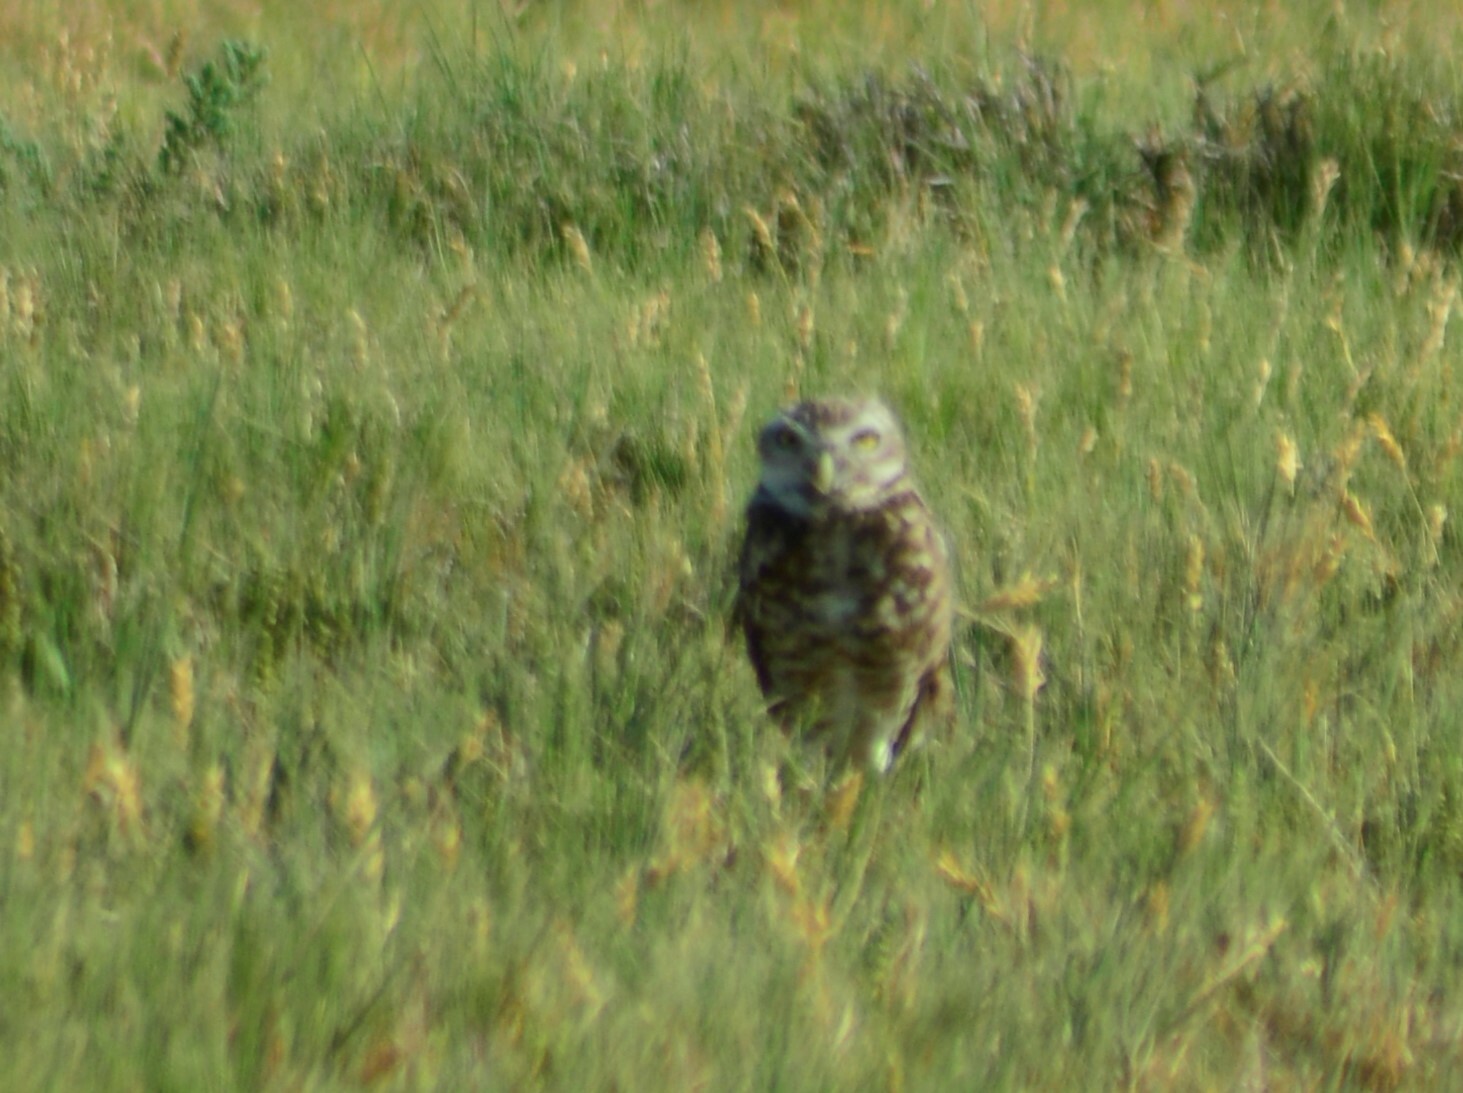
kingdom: Animalia
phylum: Chordata
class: Aves
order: Strigiformes
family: Strigidae
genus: Athene
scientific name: Athene cunicularia
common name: Burrowing owl
